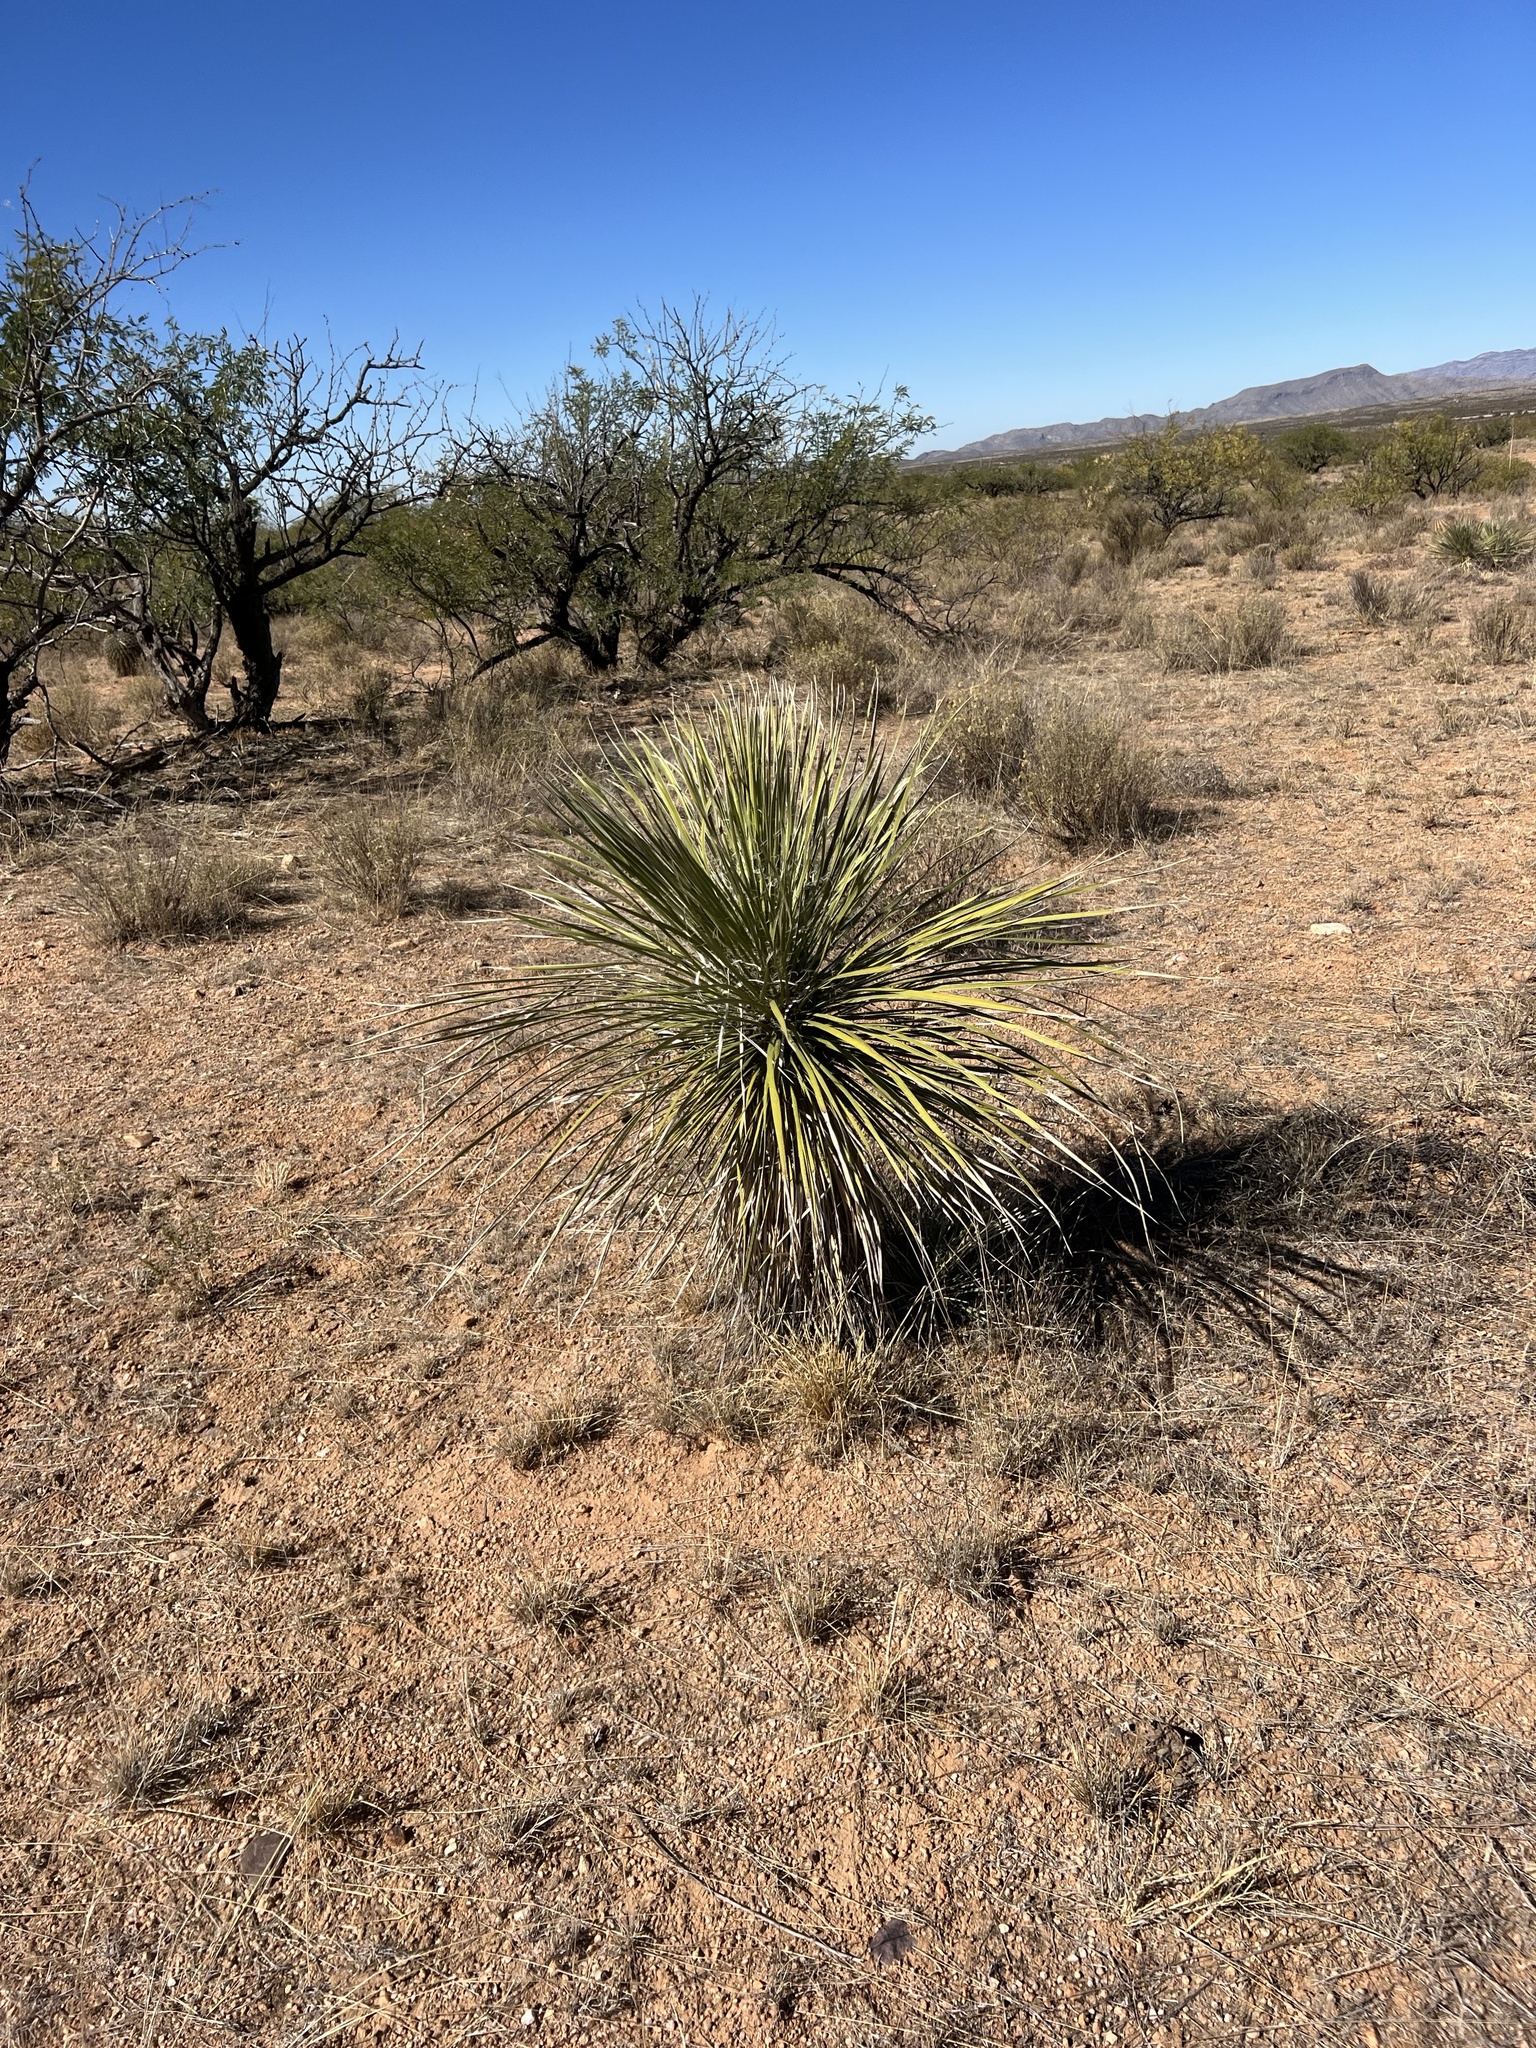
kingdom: Plantae
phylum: Tracheophyta
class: Liliopsida
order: Asparagales
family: Asparagaceae
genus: Yucca
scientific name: Yucca elata
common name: Palmella
